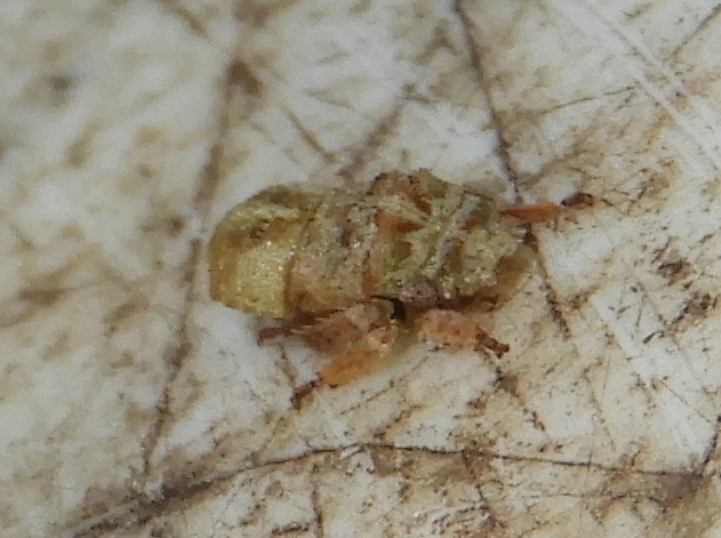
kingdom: Animalia
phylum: Arthropoda
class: Insecta
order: Hemiptera
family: Cicadellidae
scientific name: Cicadellidae
